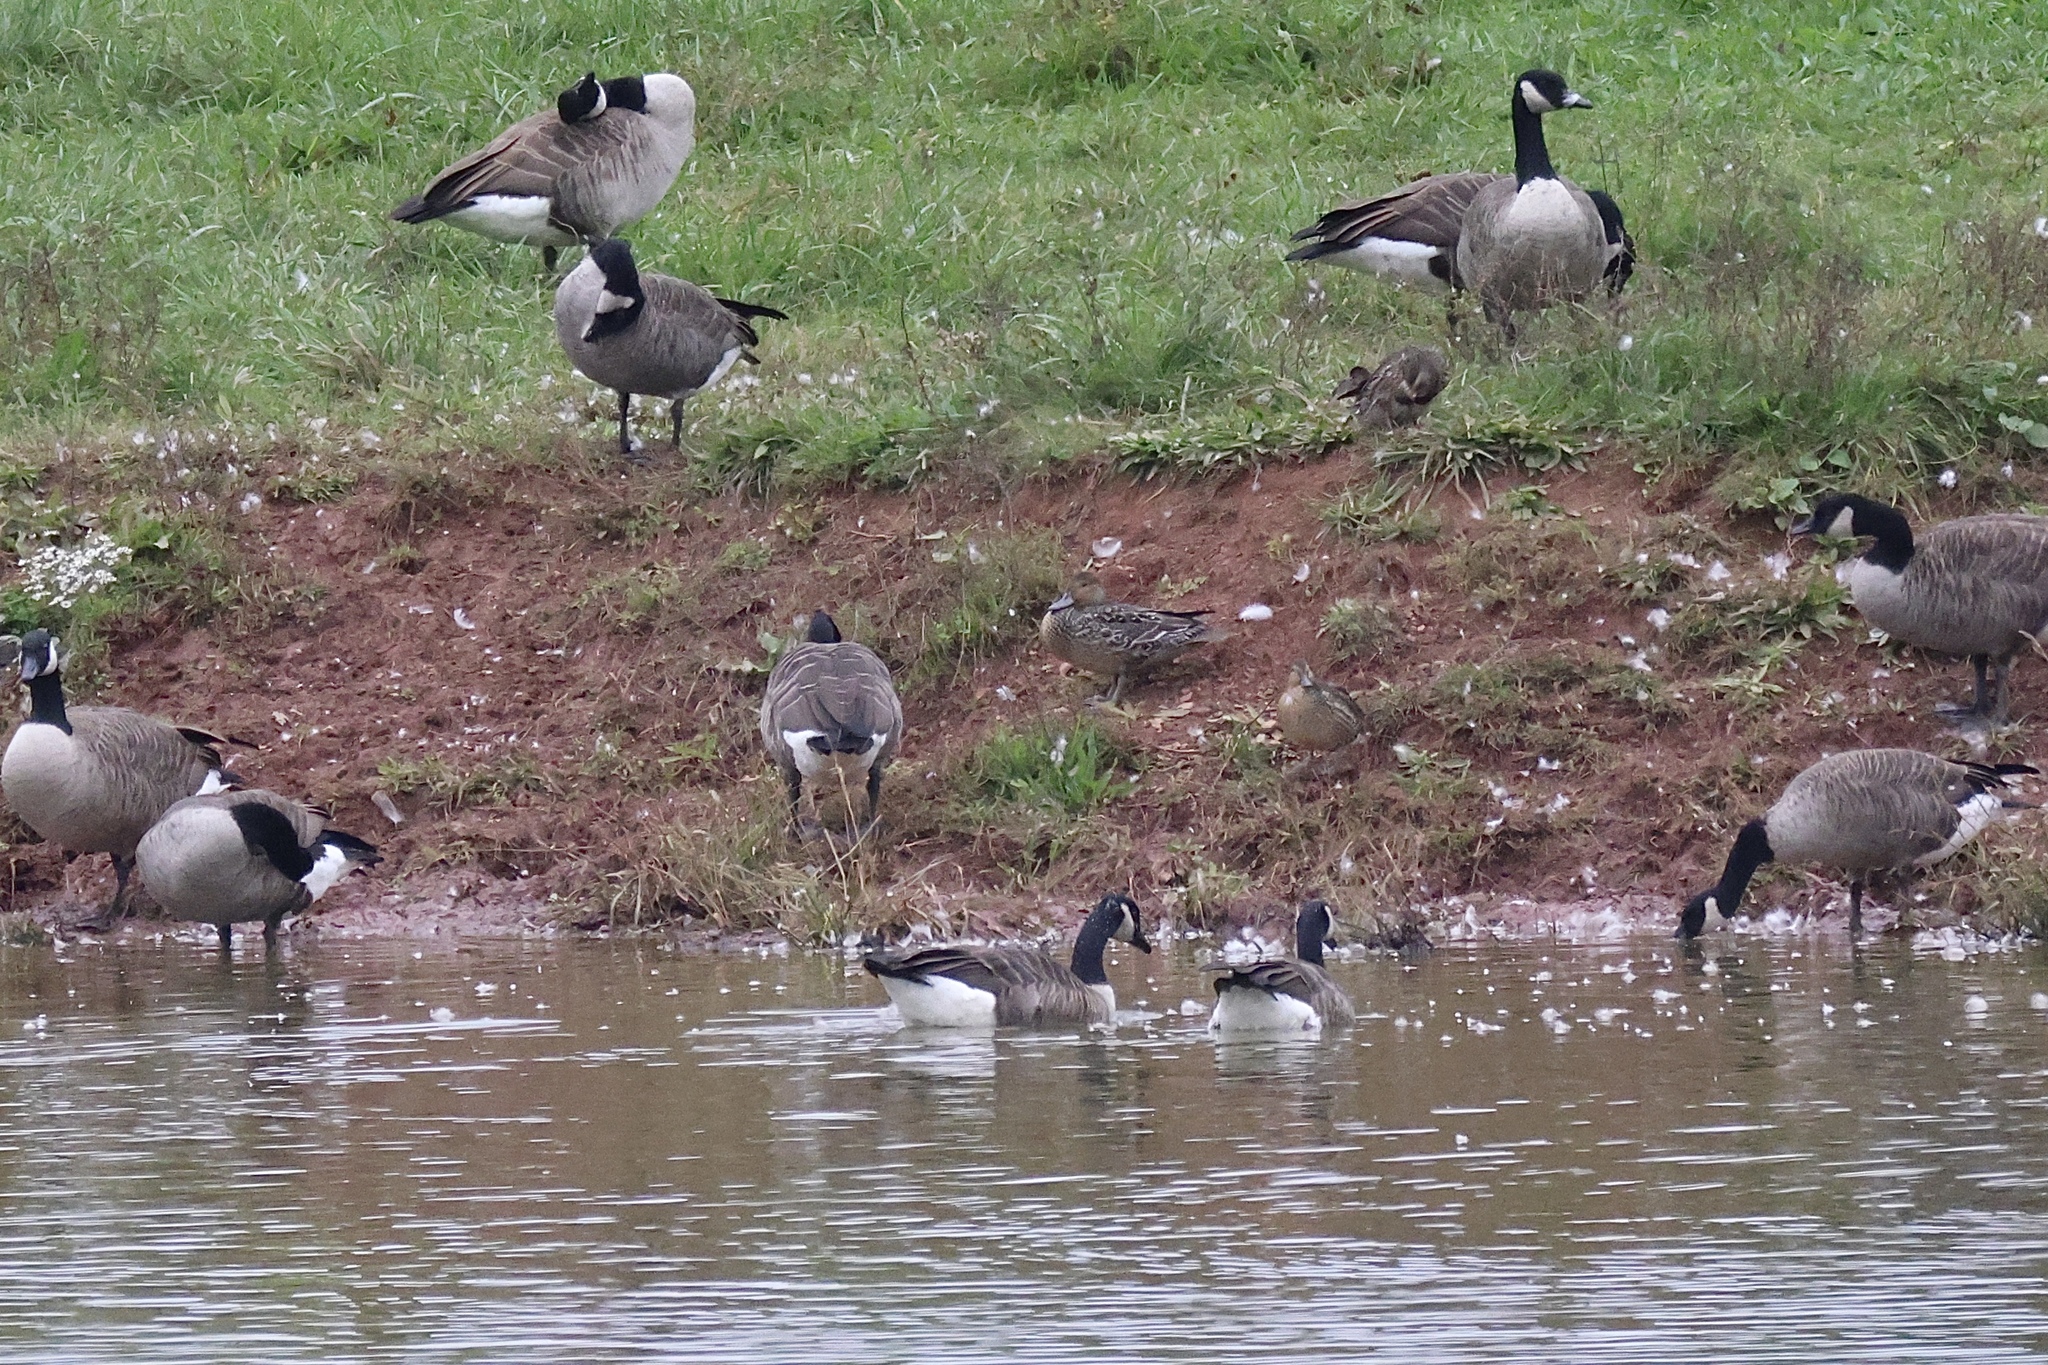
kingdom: Animalia
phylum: Chordata
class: Aves
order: Anseriformes
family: Anatidae
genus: Anas
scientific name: Anas crecca
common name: Eurasian teal
